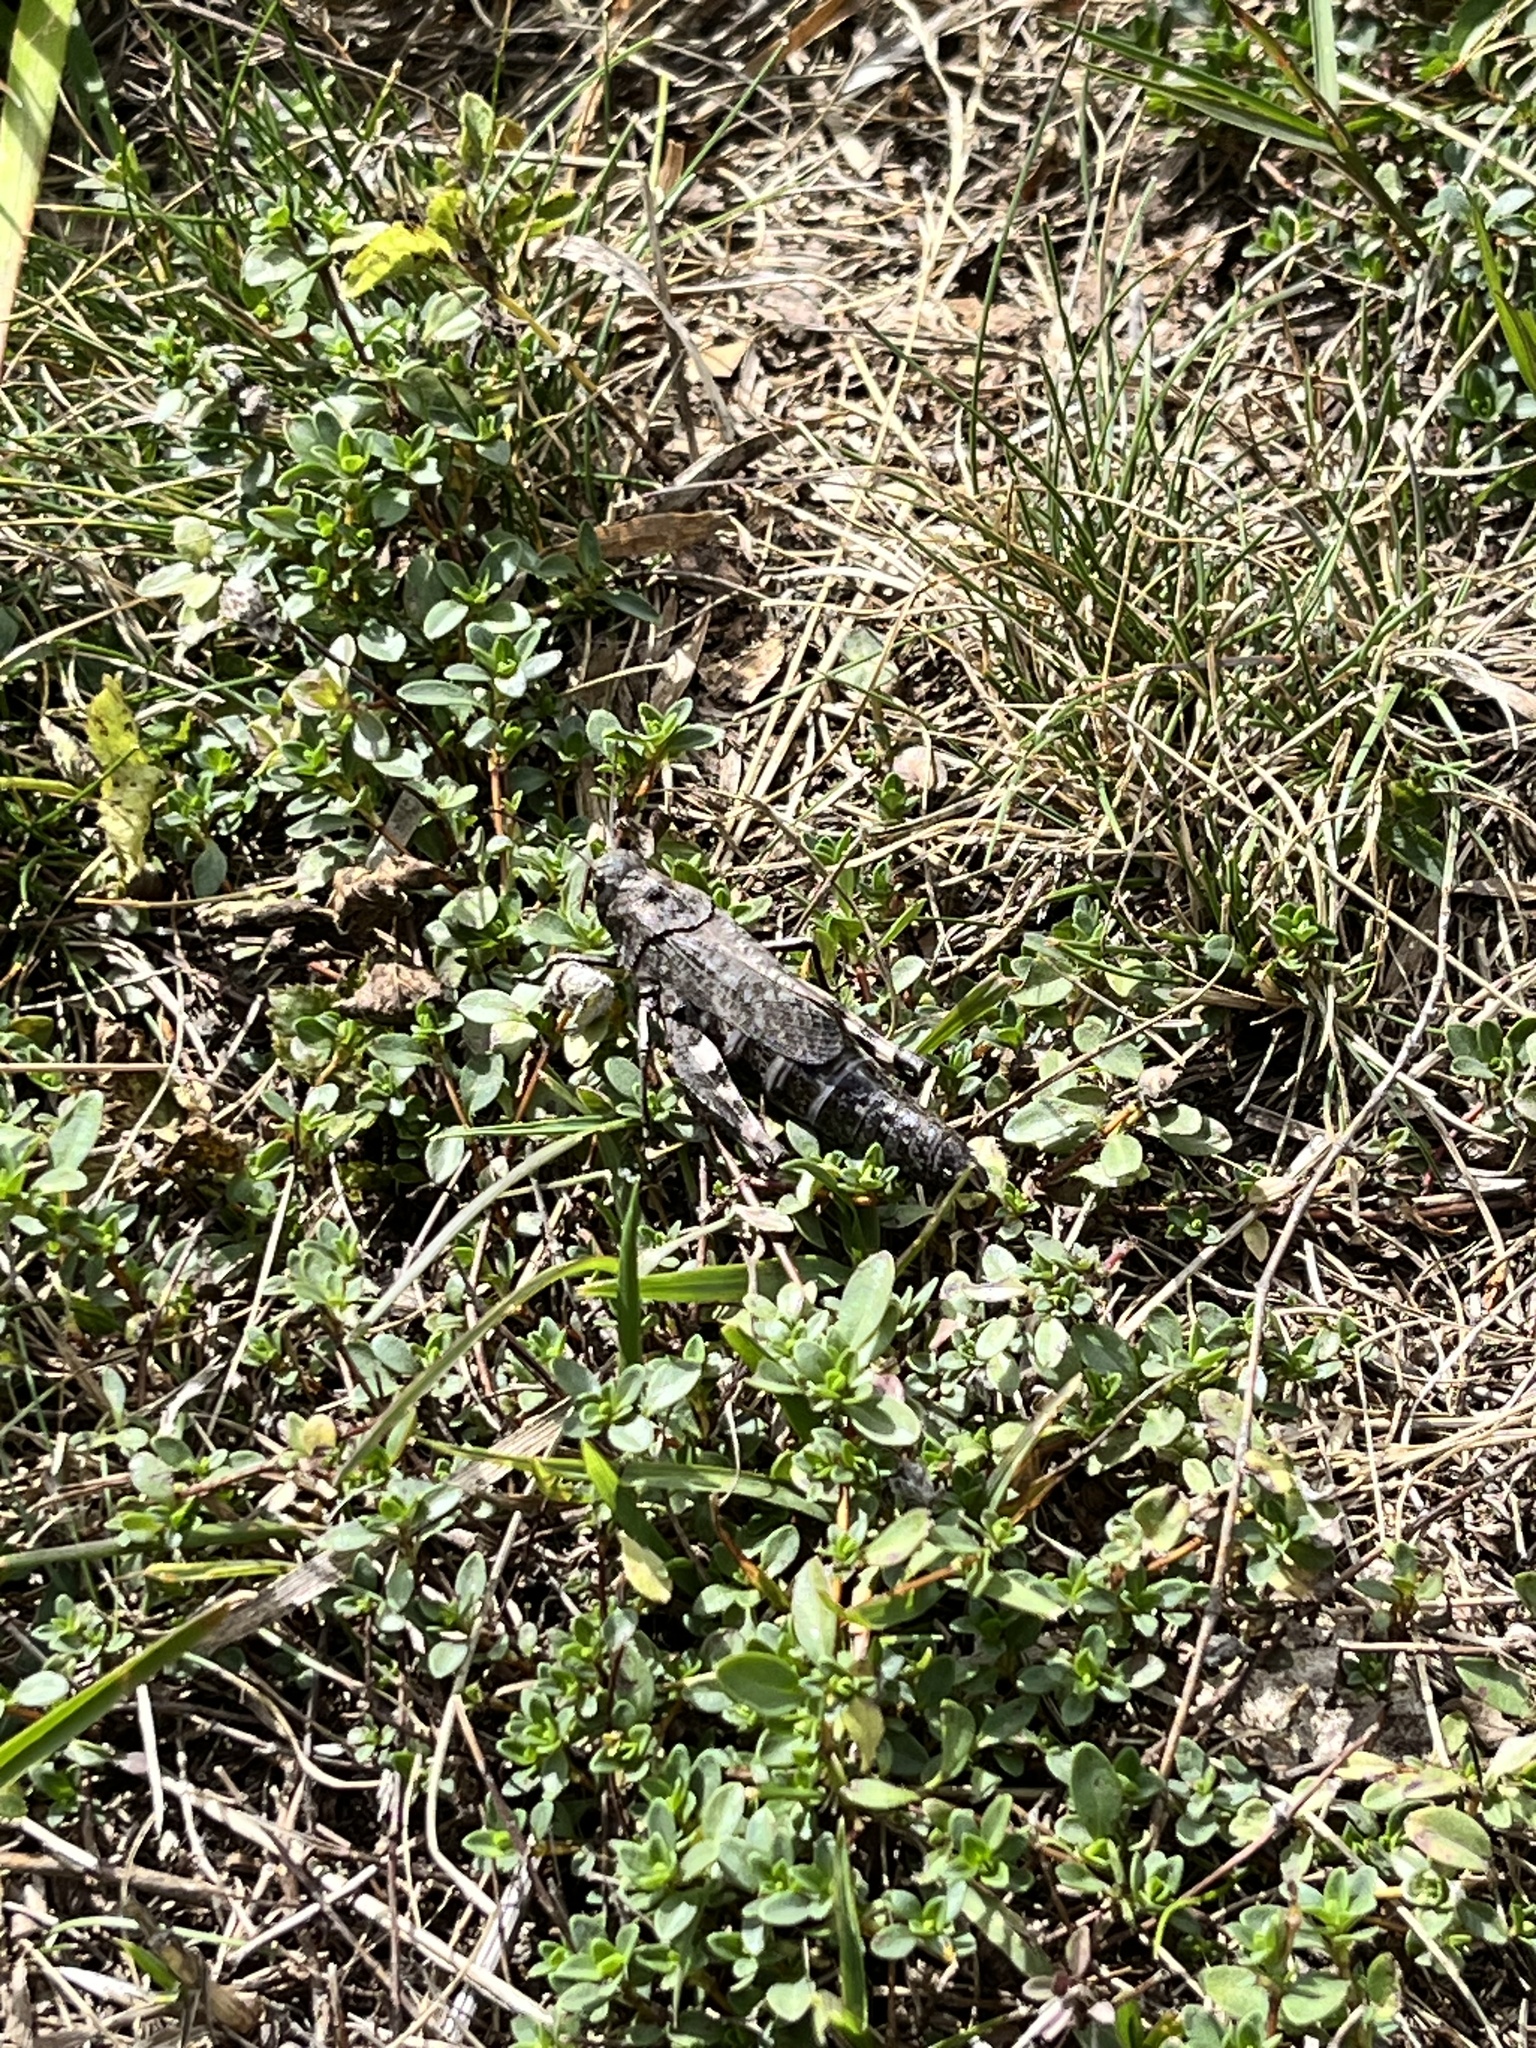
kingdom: Animalia
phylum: Arthropoda
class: Insecta
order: Orthoptera
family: Acrididae
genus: Psophus
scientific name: Psophus stridulus
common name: Rattle grasshopper
